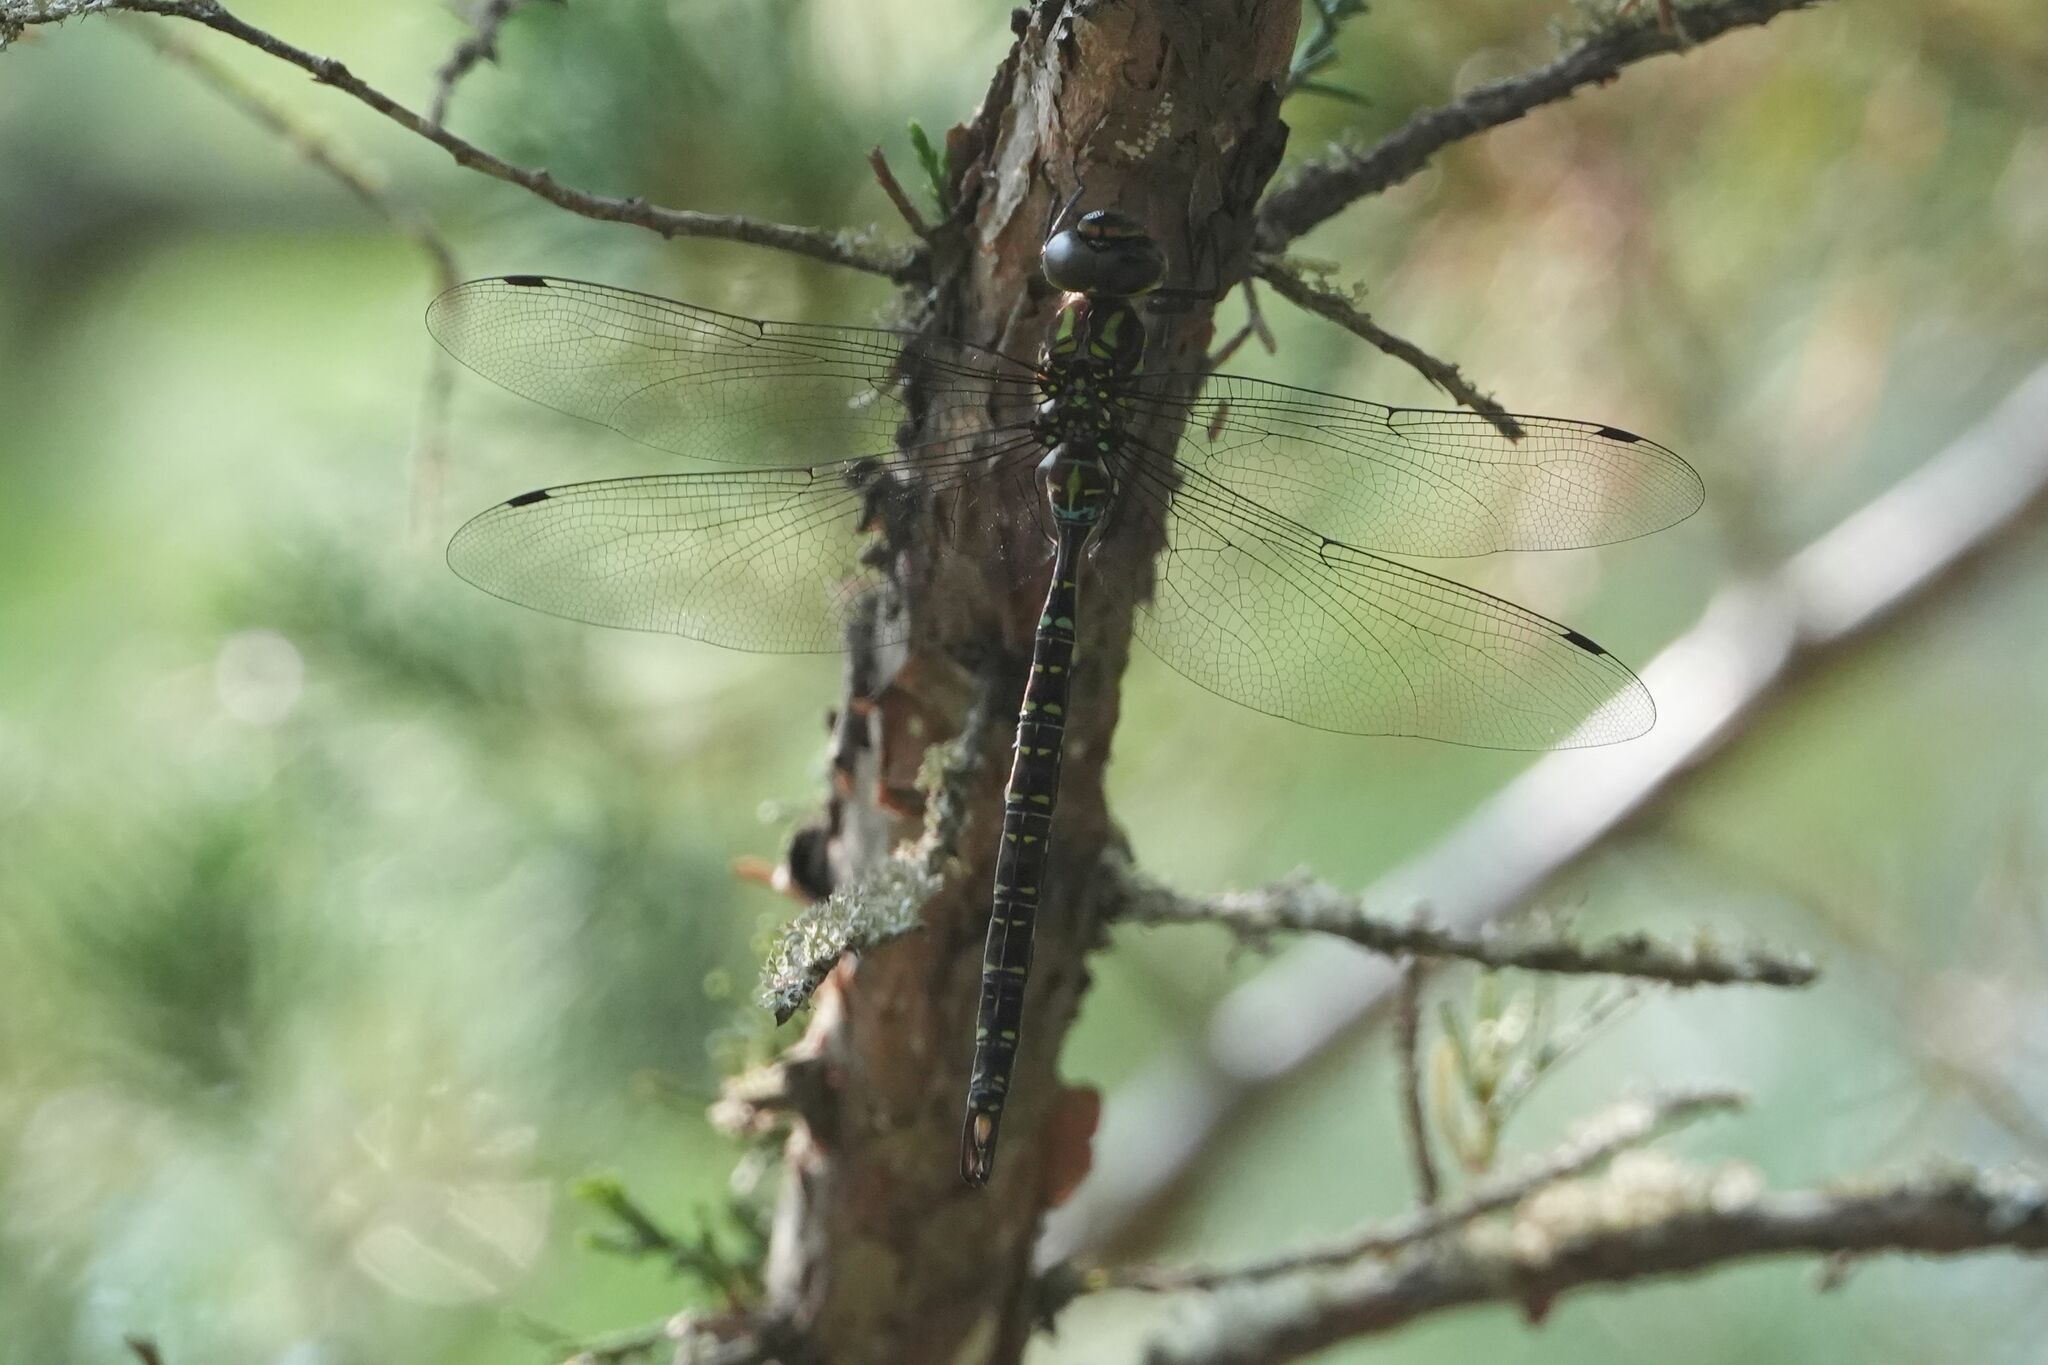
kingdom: Animalia
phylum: Arthropoda
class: Insecta
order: Odonata
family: Aeshnidae
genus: Aeshna
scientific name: Aeshna umbrosa
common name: Shadow darner
